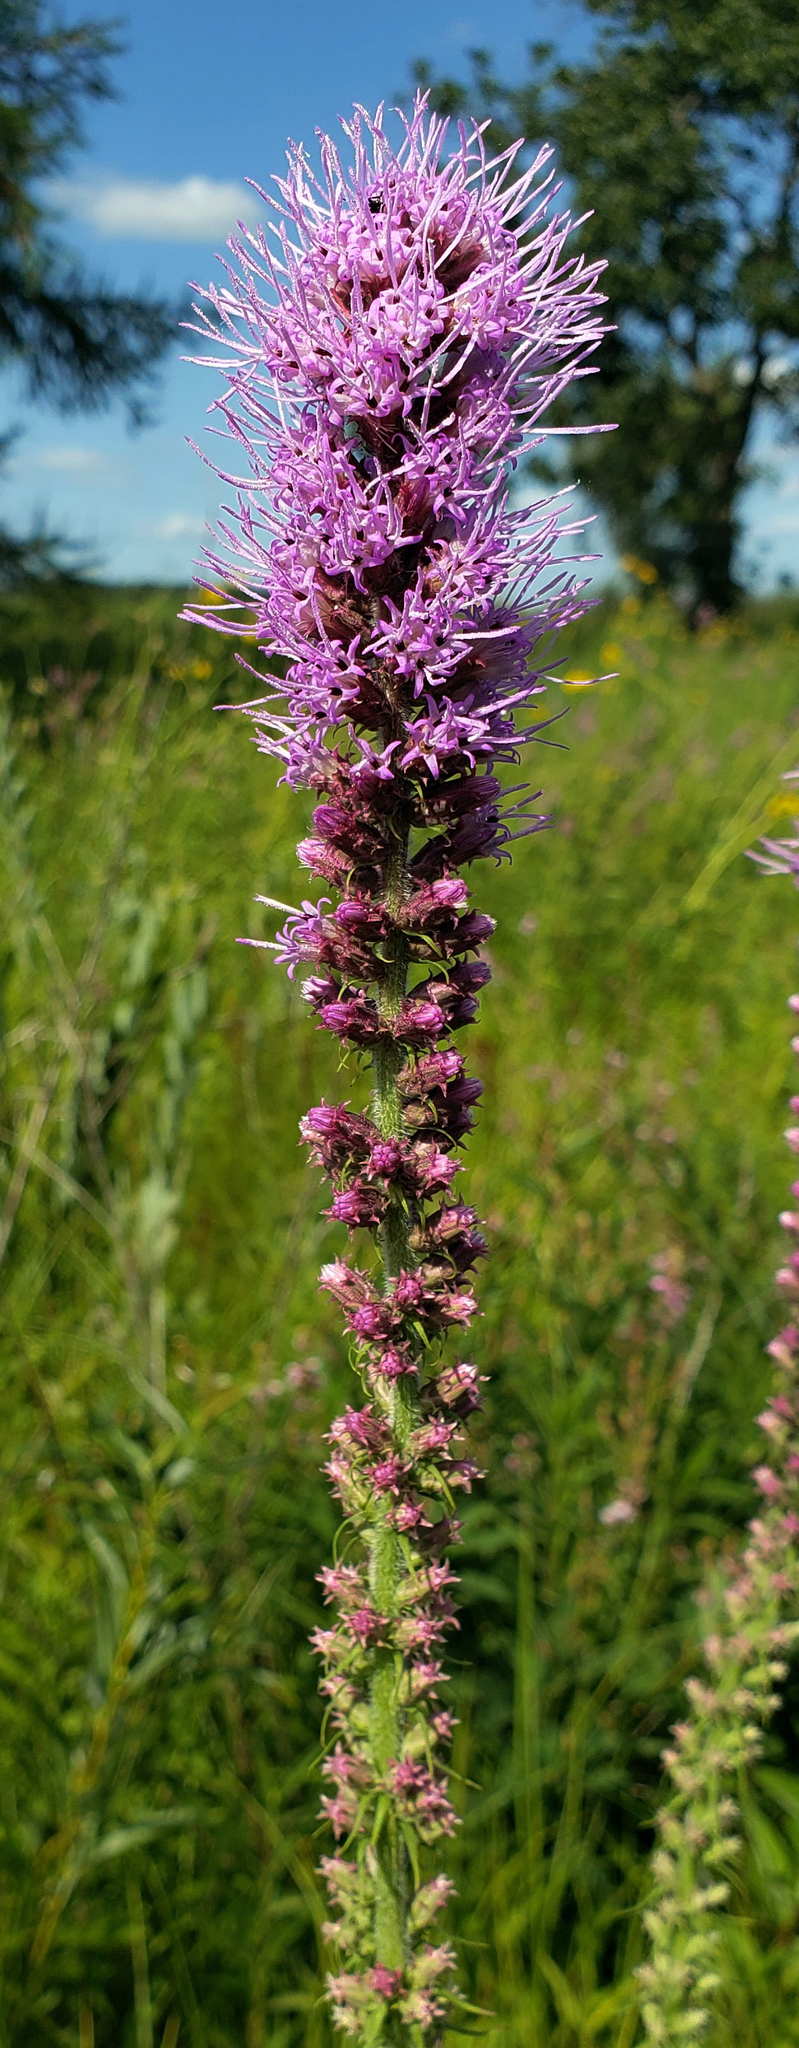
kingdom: Plantae
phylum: Tracheophyta
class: Magnoliopsida
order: Asterales
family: Asteraceae
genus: Liatris
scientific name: Liatris pycnostachya
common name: Cattail gayfeather
